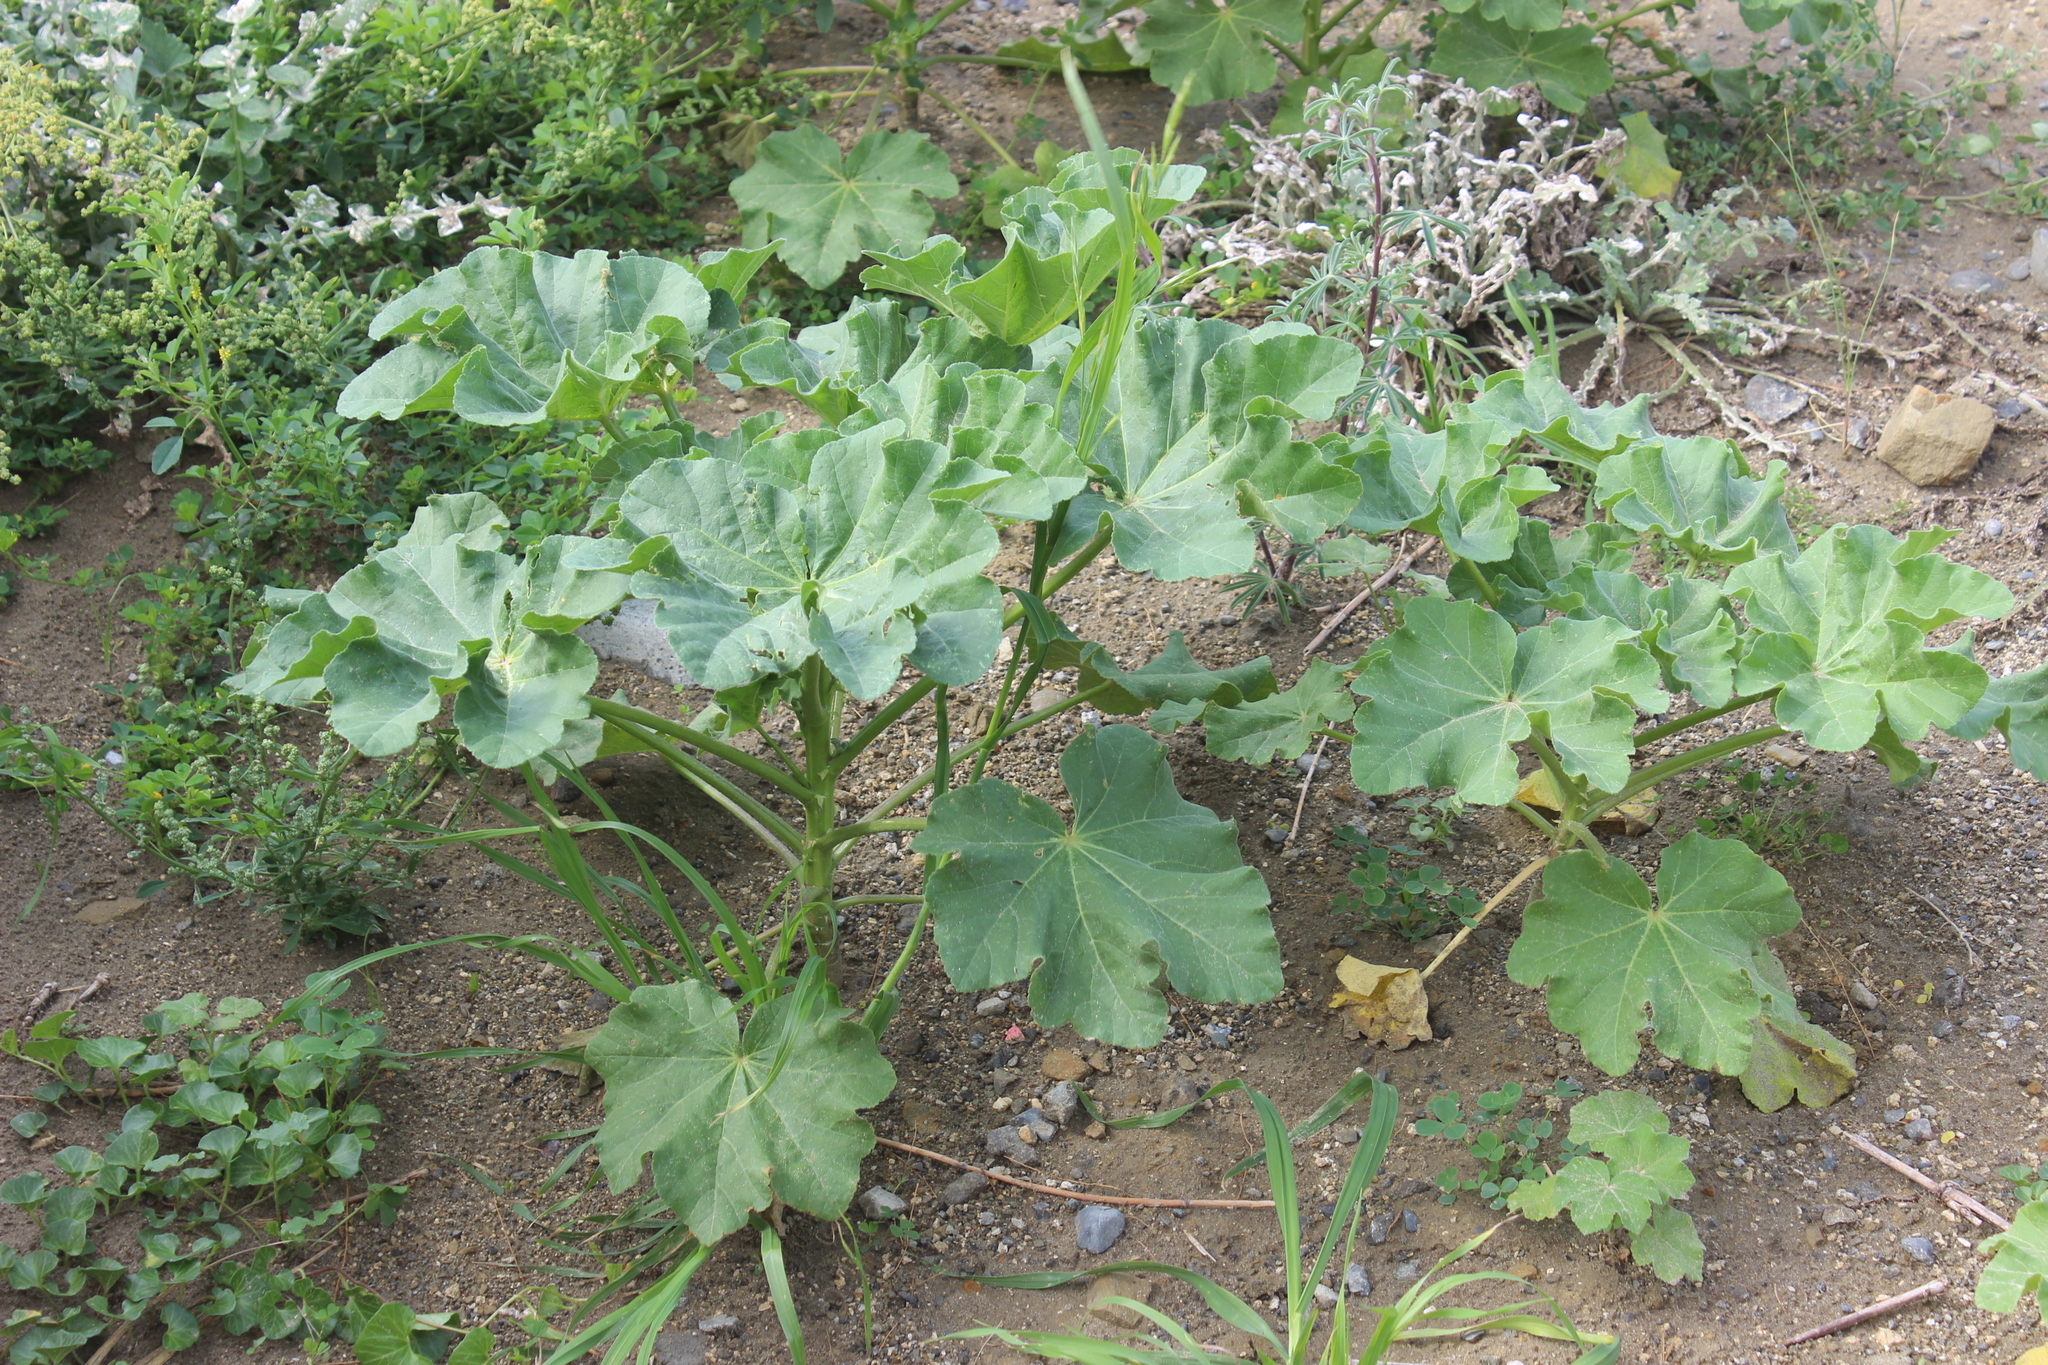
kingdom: Plantae
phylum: Tracheophyta
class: Magnoliopsida
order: Malvales
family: Malvaceae
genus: Malva
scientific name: Malva arborea
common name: Tree mallow
